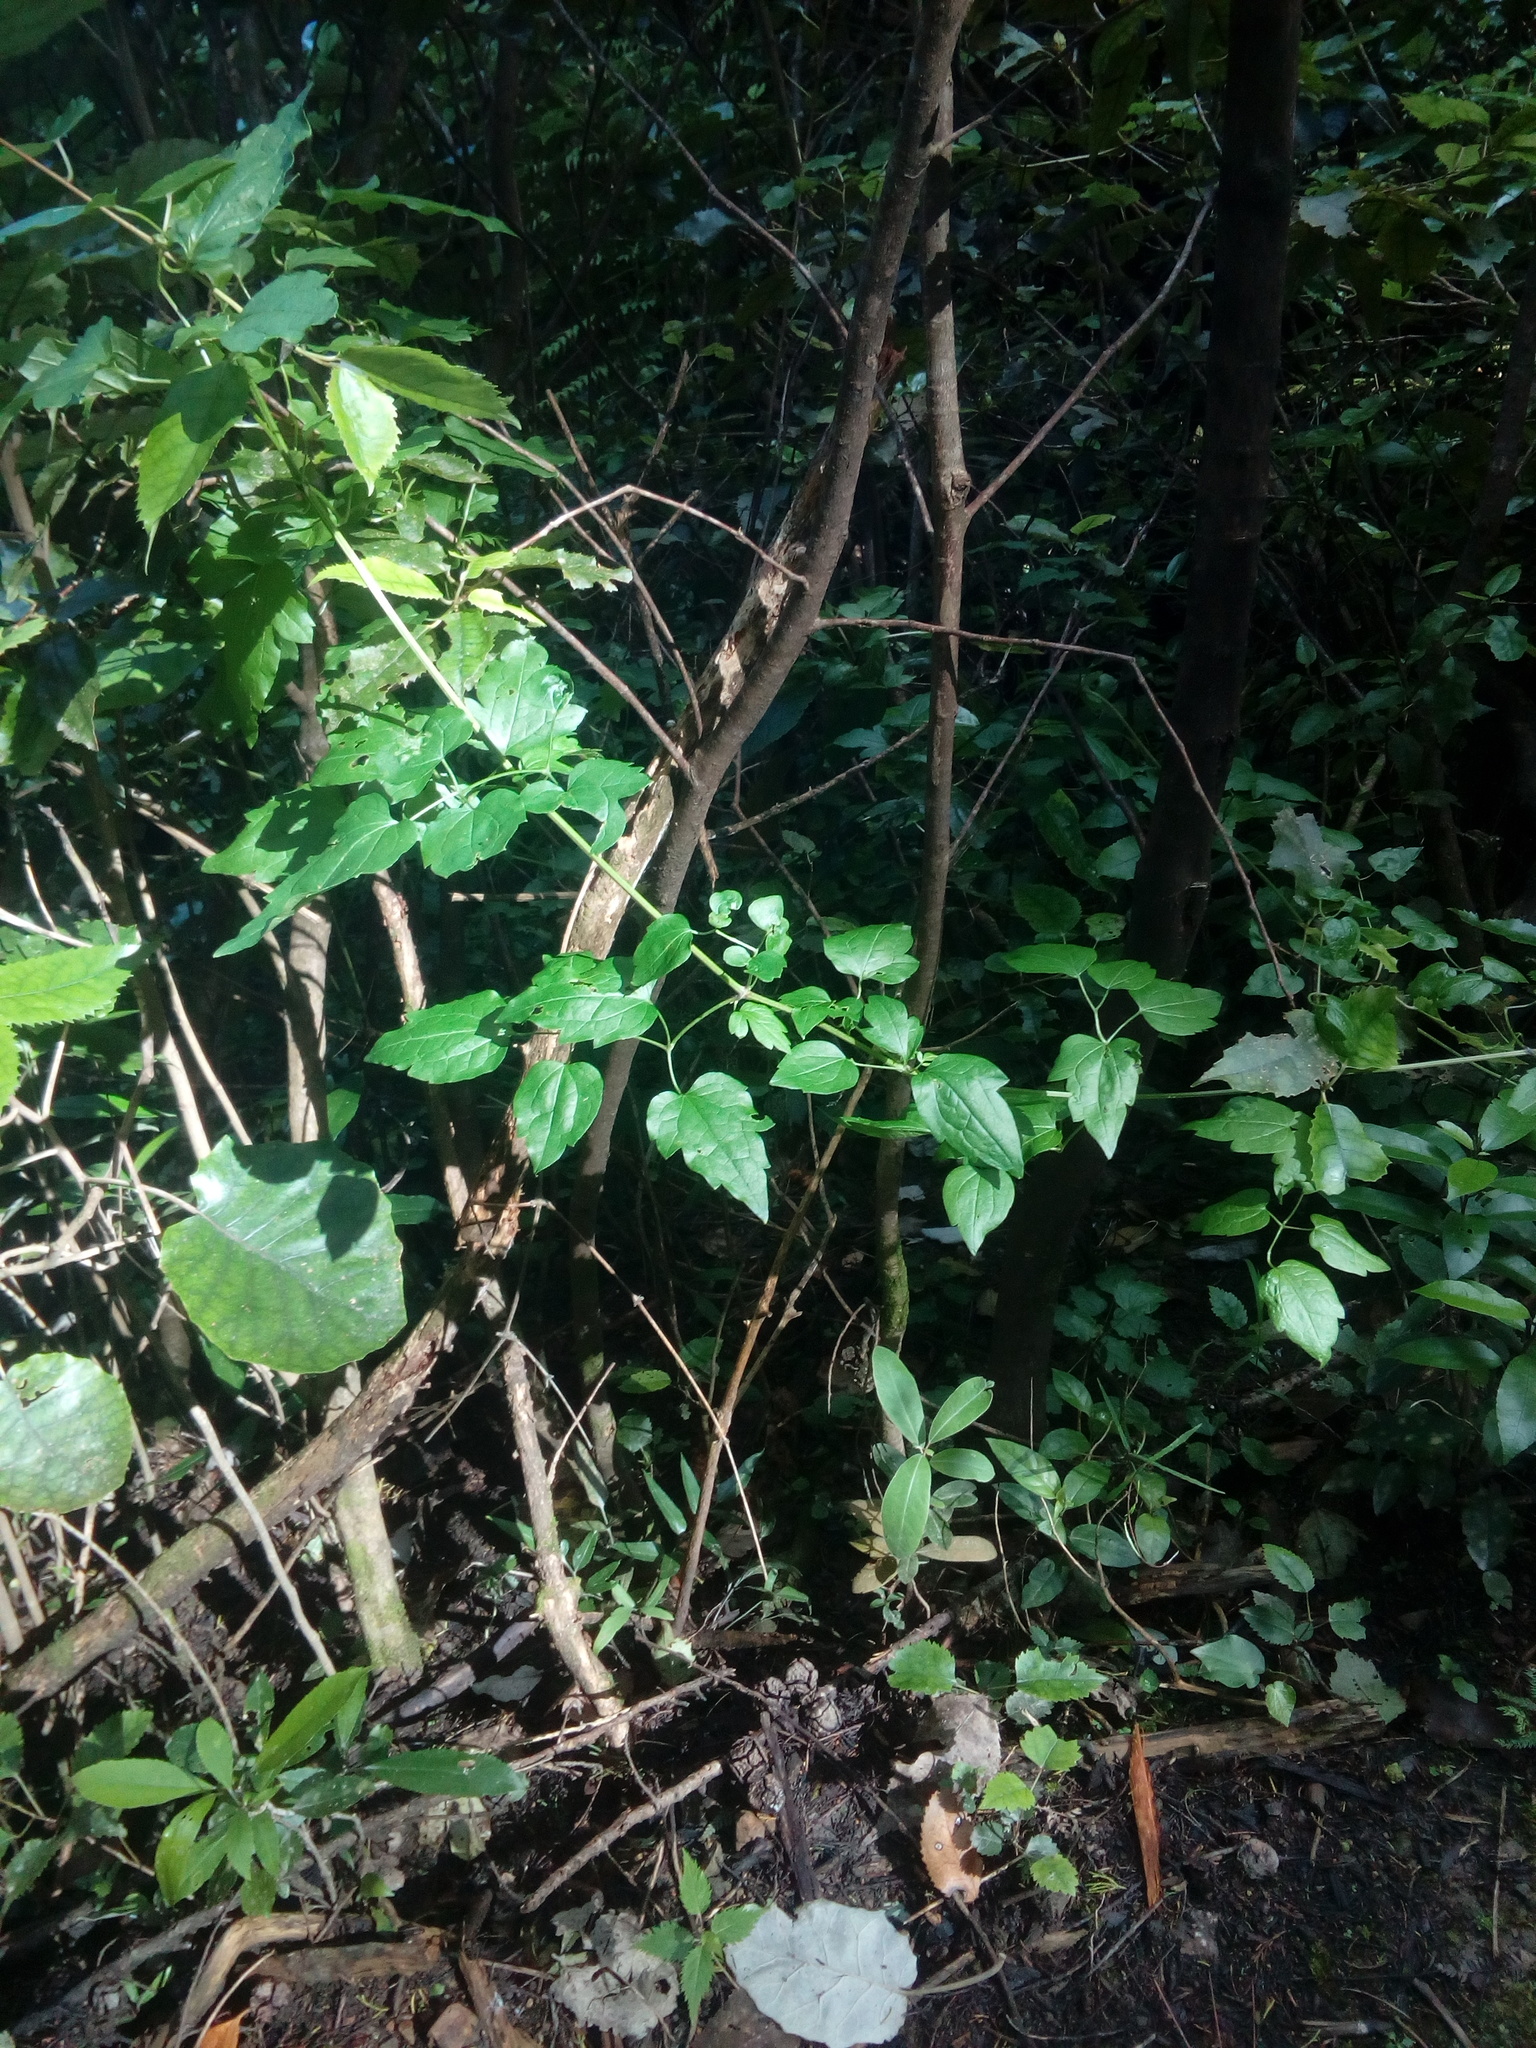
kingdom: Plantae
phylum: Tracheophyta
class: Magnoliopsida
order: Ranunculales
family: Ranunculaceae
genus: Clematis
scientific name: Clematis vitalba
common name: Evergreen clematis
